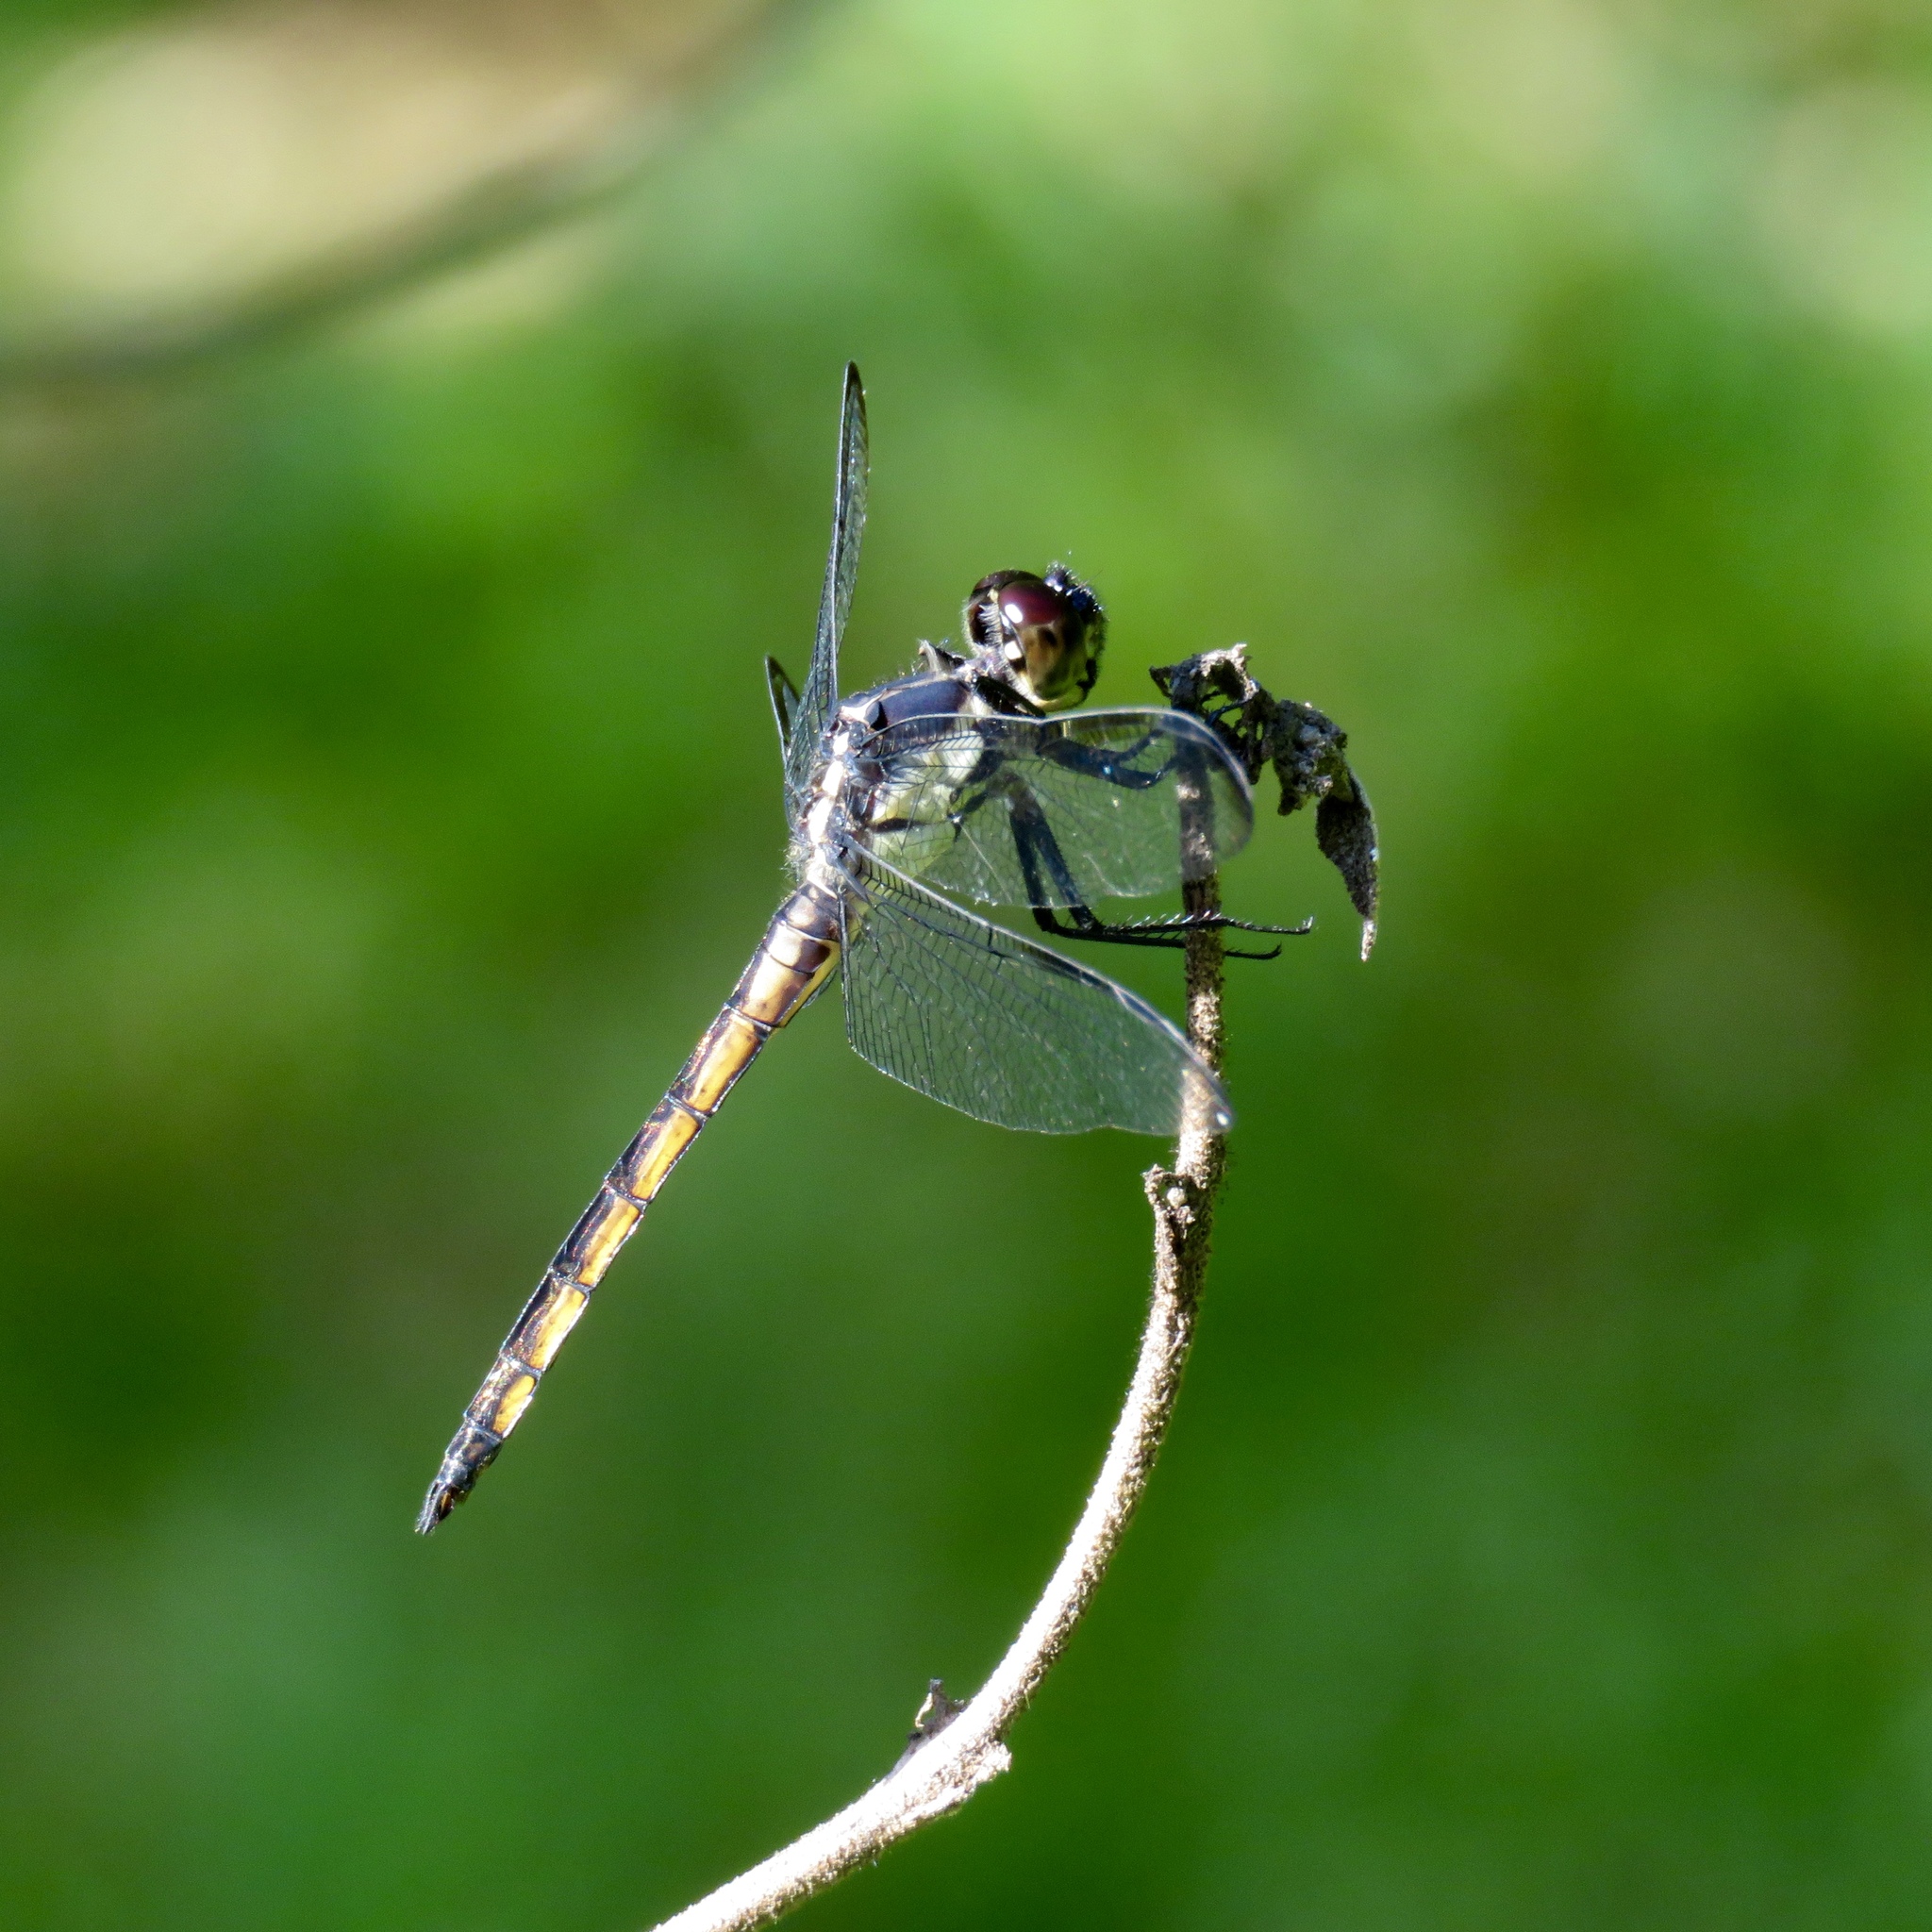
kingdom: Animalia
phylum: Arthropoda
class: Insecta
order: Odonata
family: Libellulidae
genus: Libellula
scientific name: Libellula incesta
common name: Slaty skimmer
